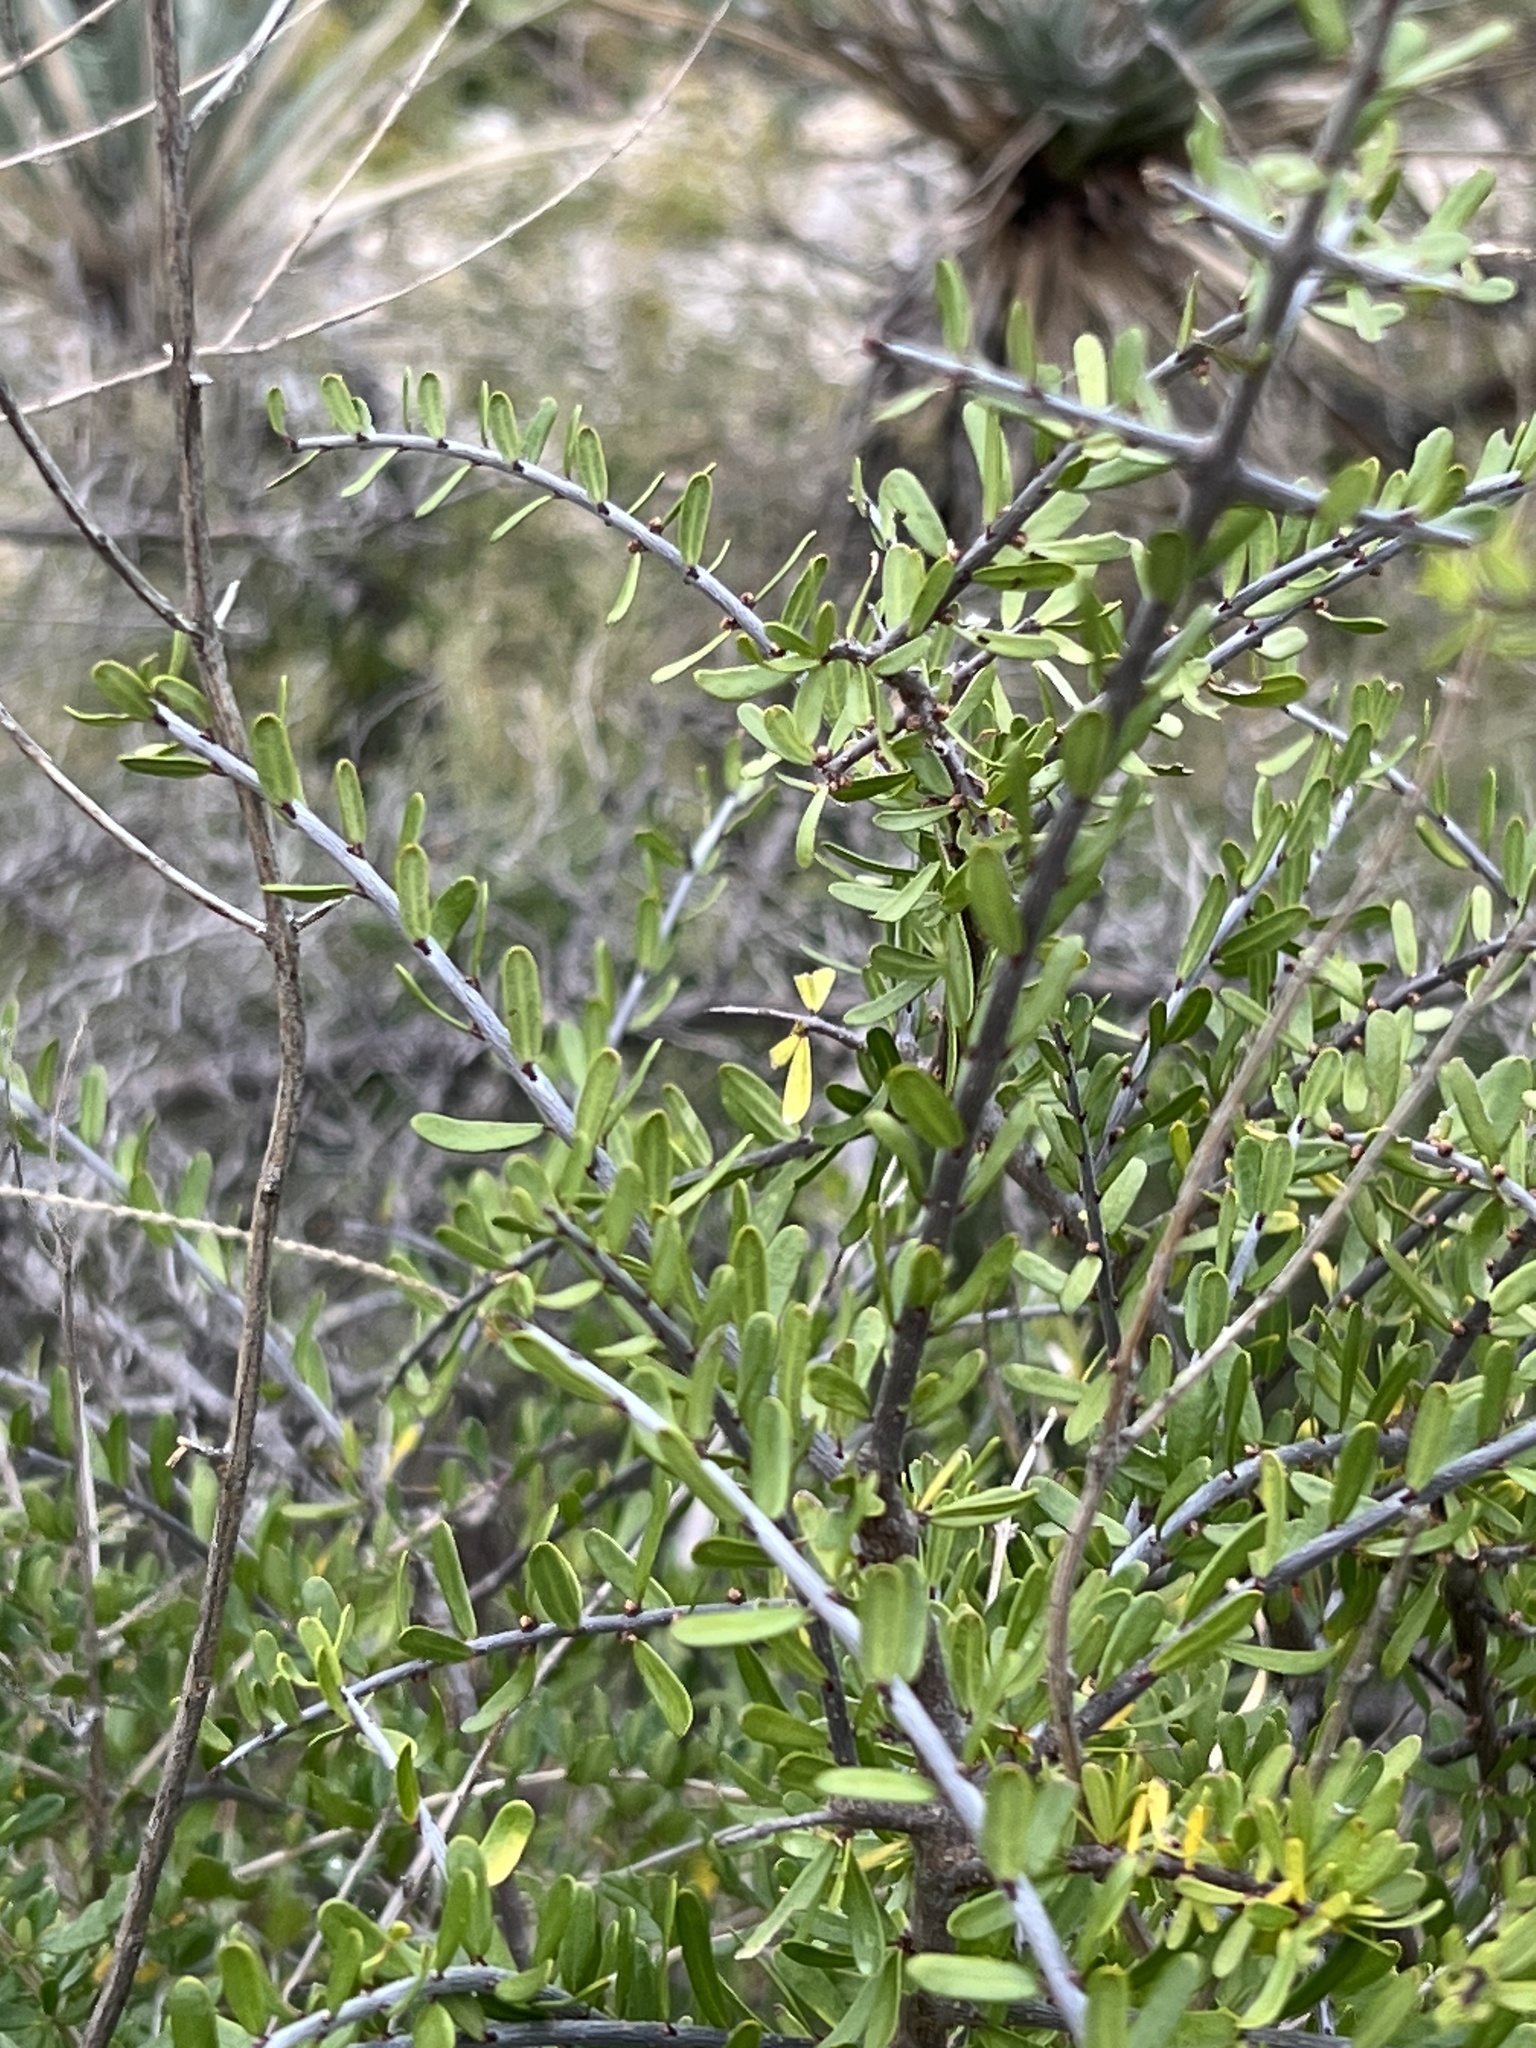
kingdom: Plantae
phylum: Tracheophyta
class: Magnoliopsida
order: Lamiales
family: Oleaceae
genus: Forestiera
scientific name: Forestiera angustifolia
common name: Elbowbush
